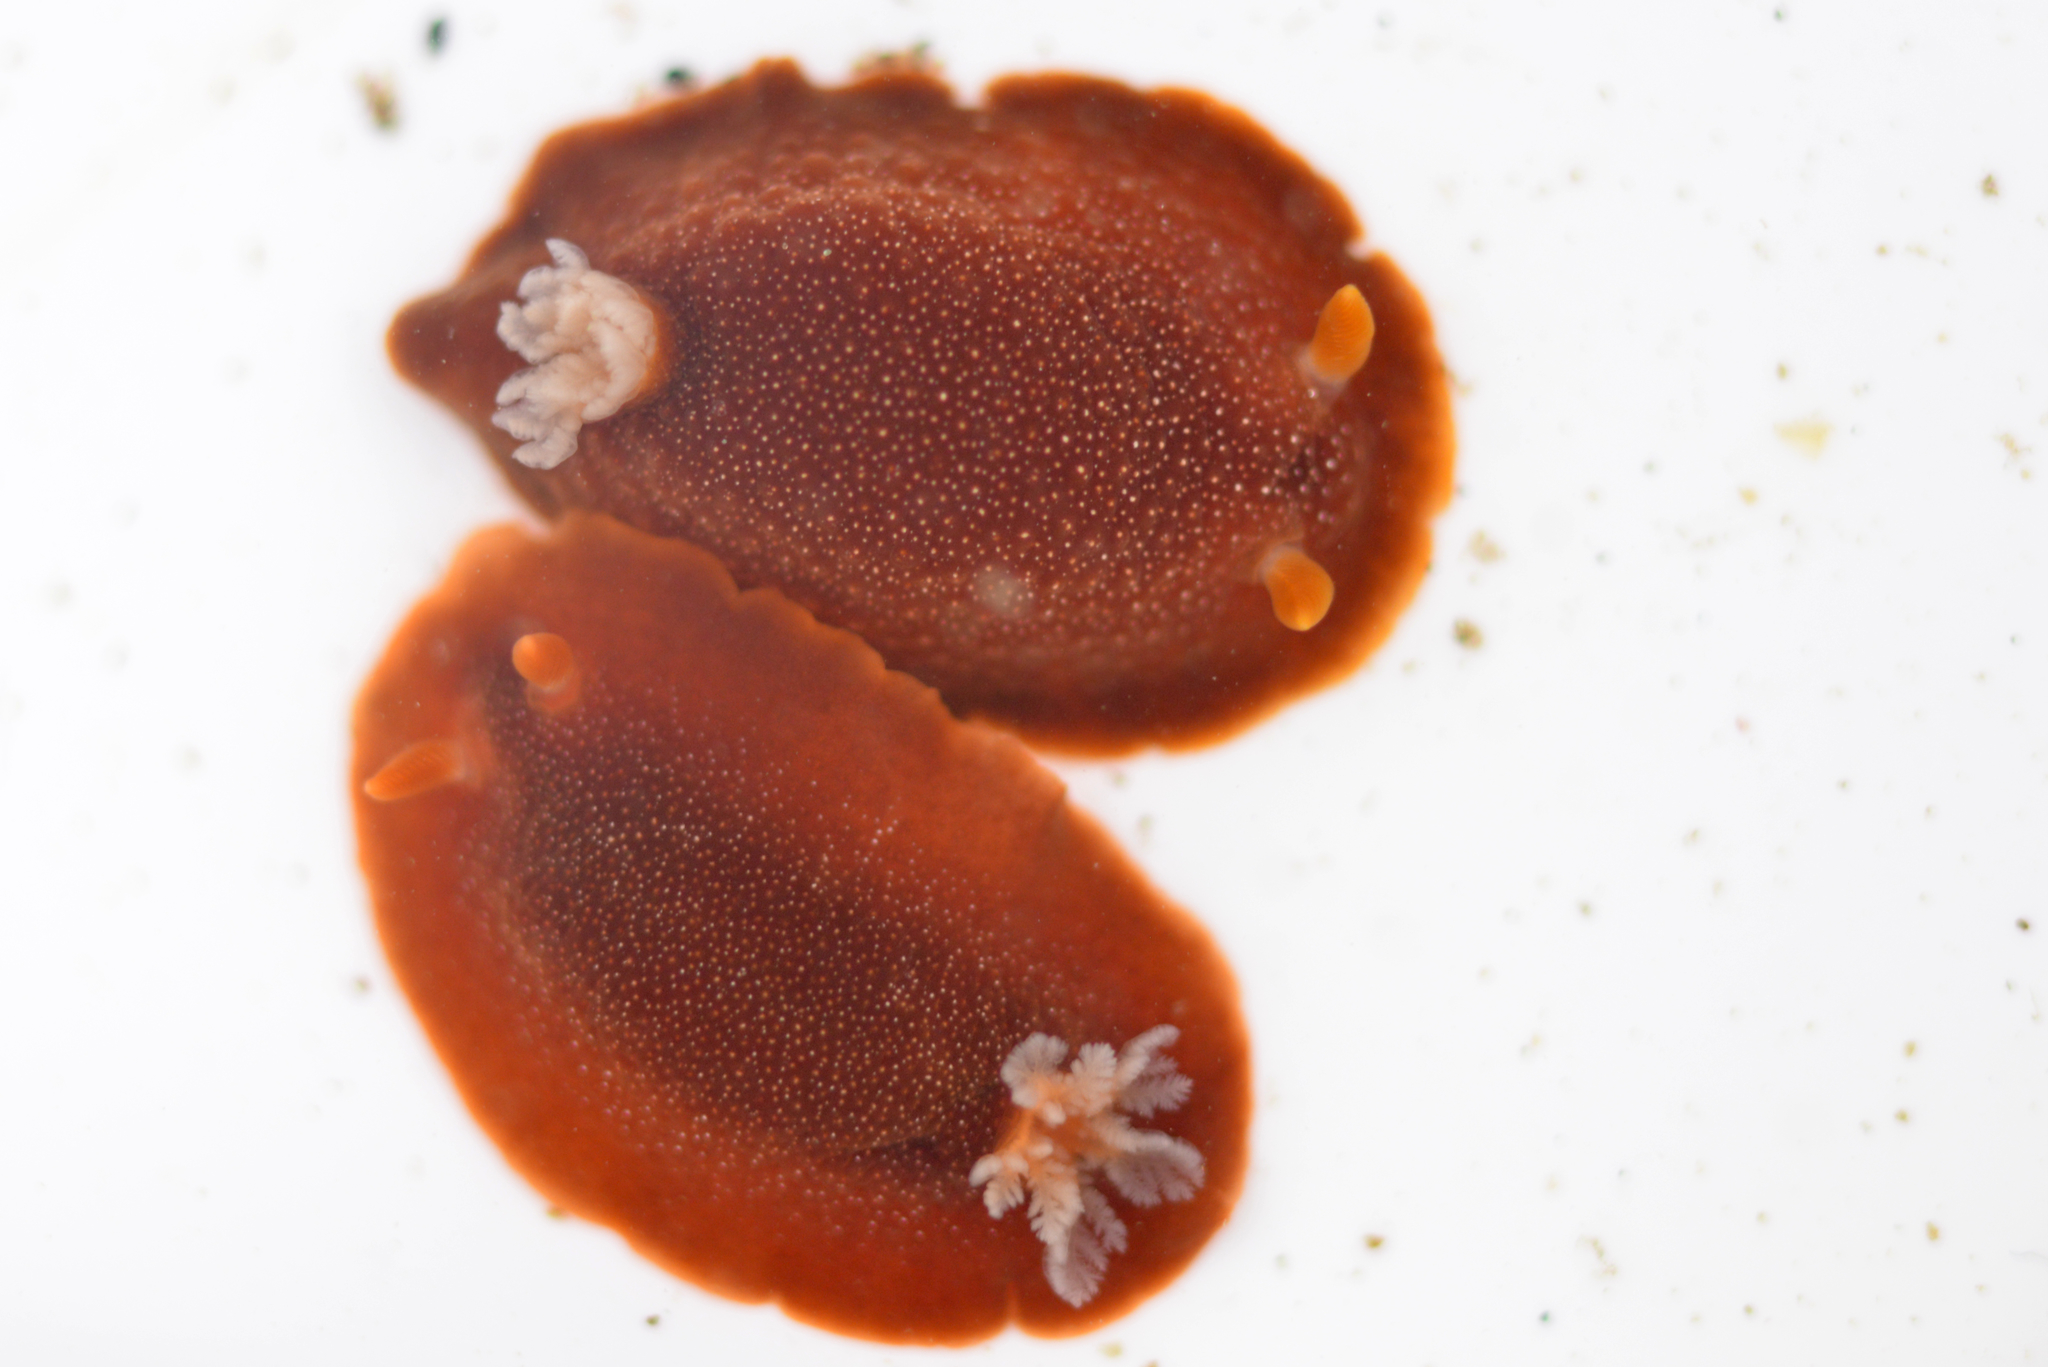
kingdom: Animalia
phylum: Mollusca
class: Gastropoda
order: Nudibranchia
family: Dendrodorididae
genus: Doriopsilla
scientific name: Doriopsilla albopunctata
